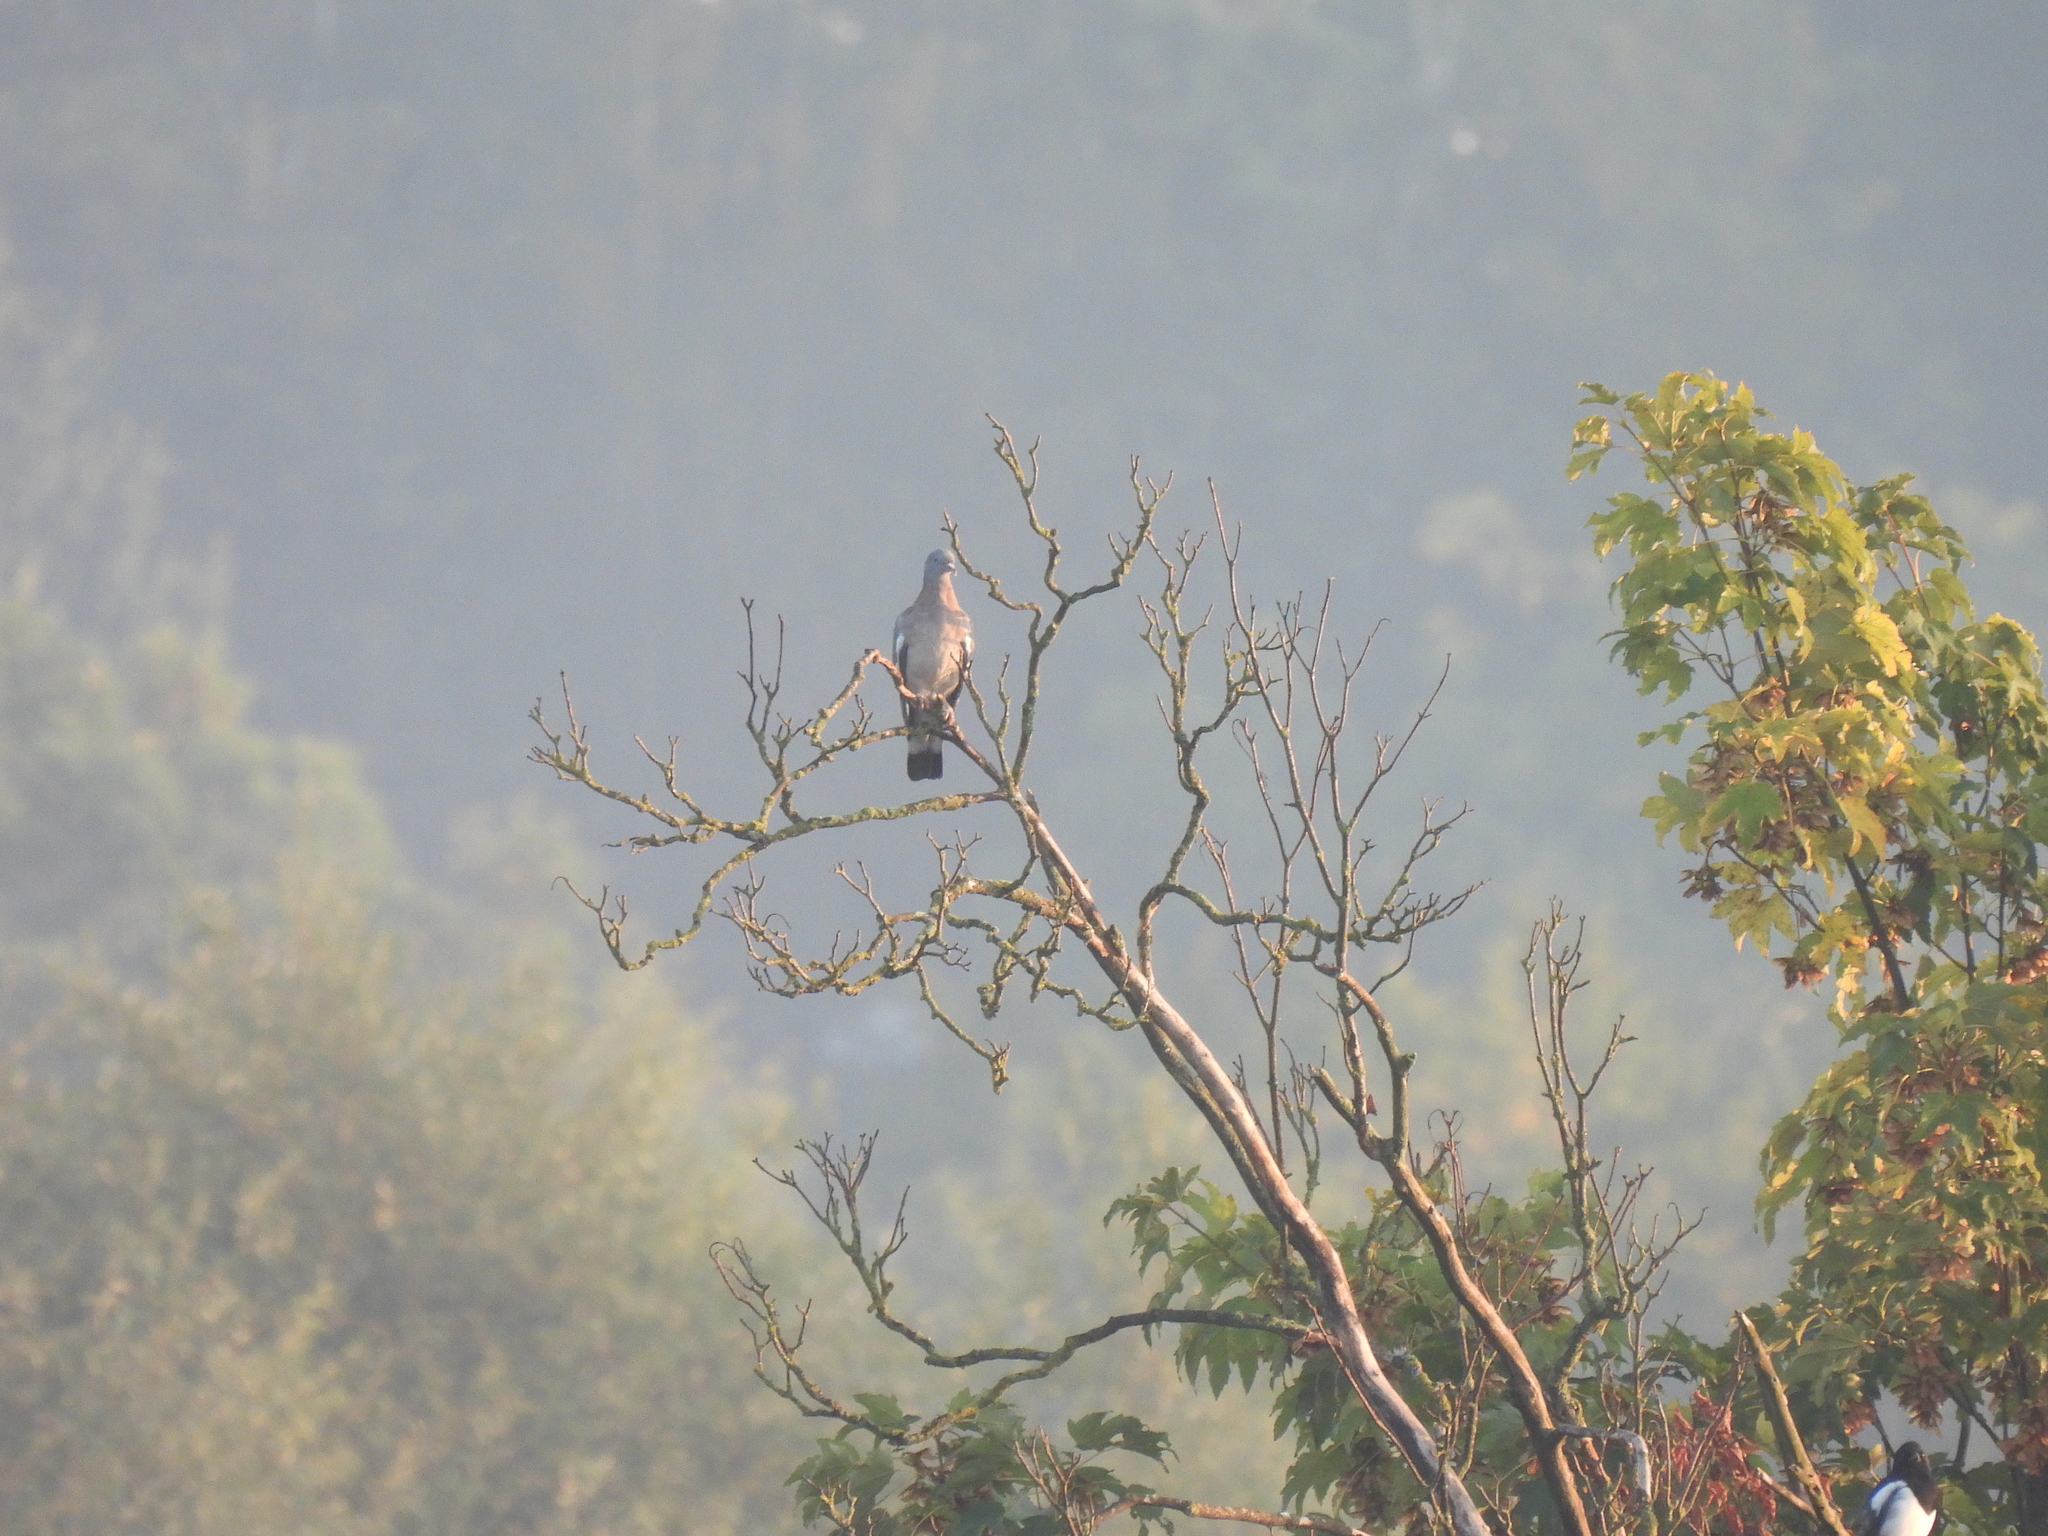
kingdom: Animalia
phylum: Chordata
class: Aves
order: Columbiformes
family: Columbidae
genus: Columba
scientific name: Columba palumbus
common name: Common wood pigeon
